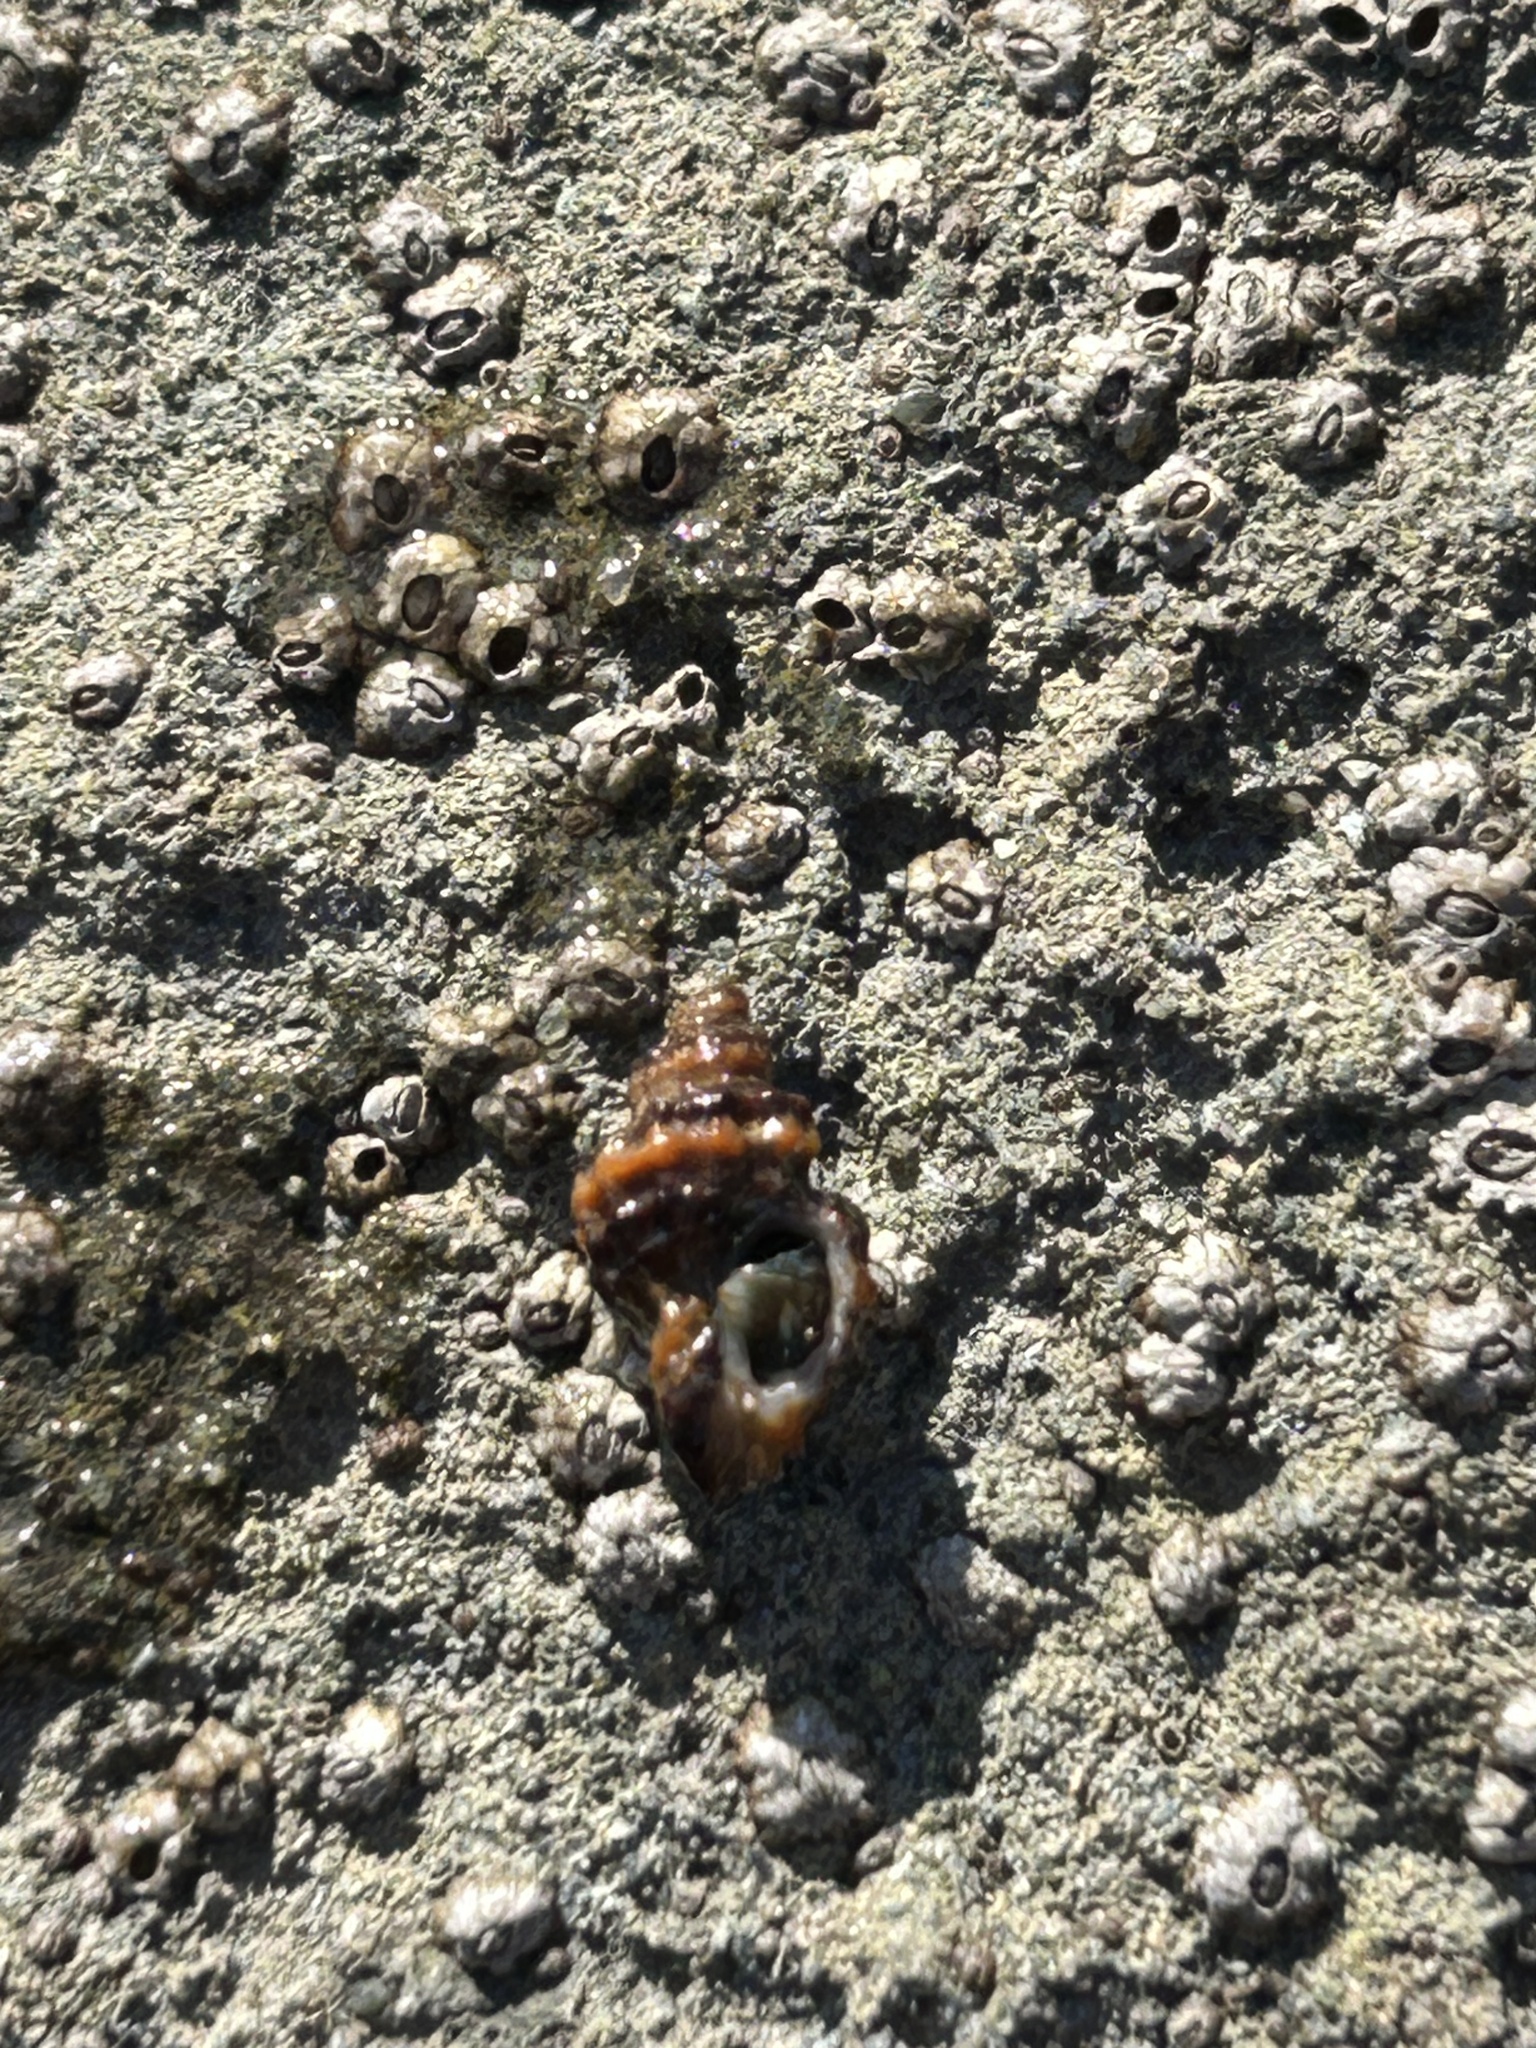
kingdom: Animalia
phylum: Mollusca
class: Gastropoda
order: Neogastropoda
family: Muricidae
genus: Paciocinebrina
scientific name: Paciocinebrina atropurpurea
